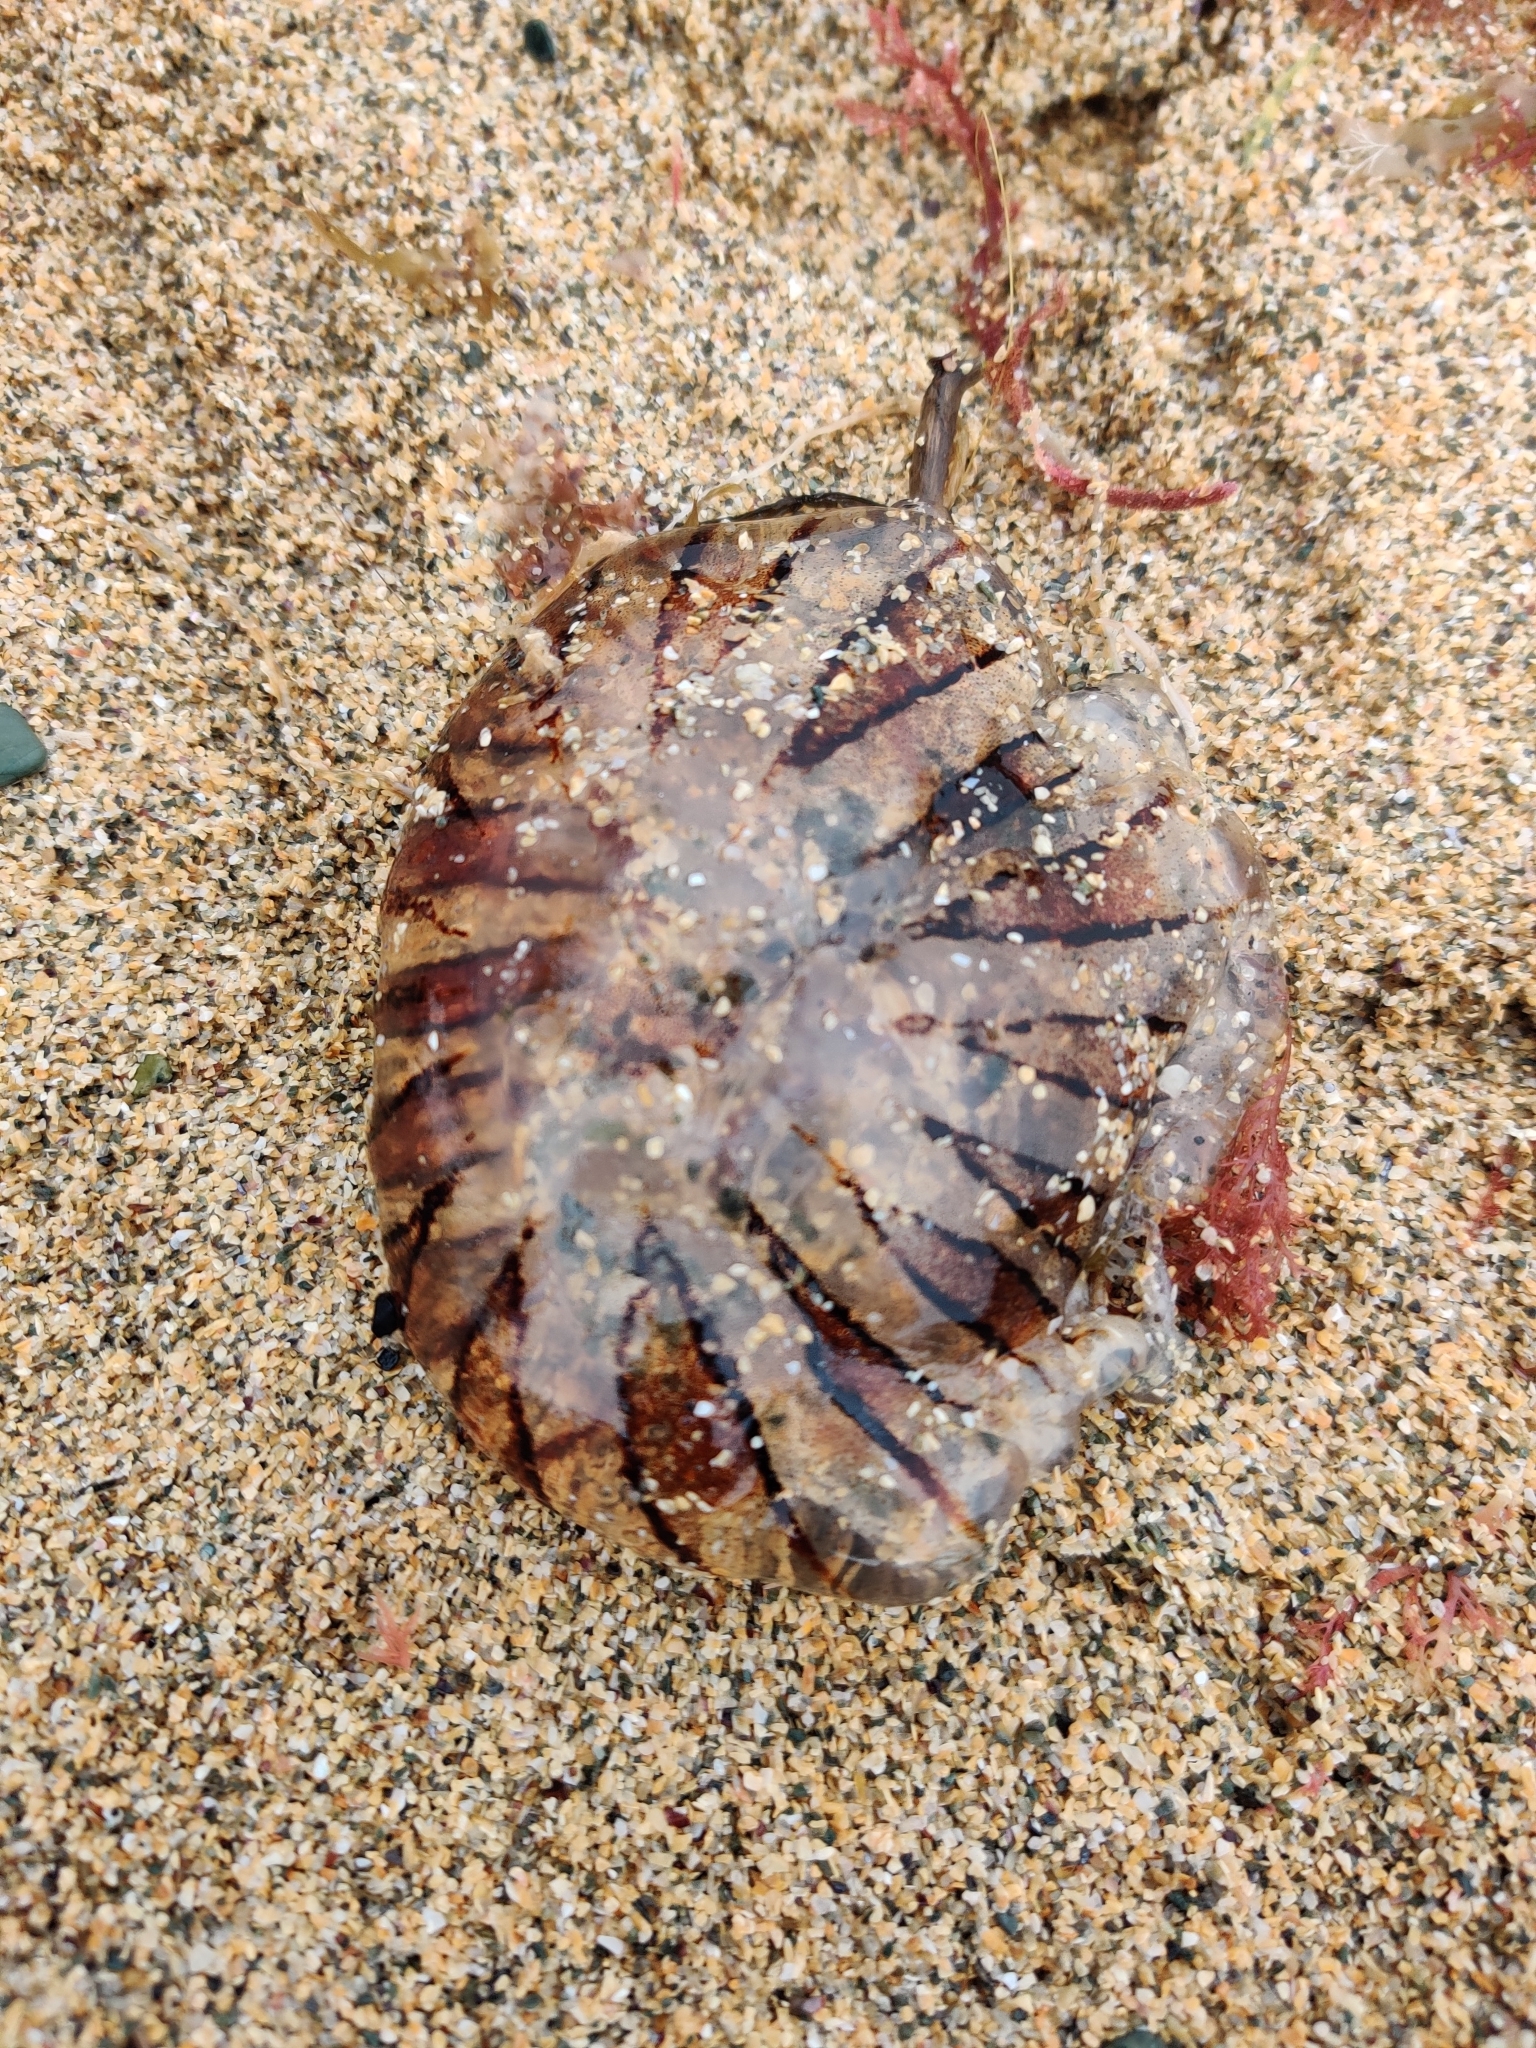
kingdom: Animalia
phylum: Cnidaria
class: Scyphozoa
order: Semaeostomeae
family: Pelagiidae
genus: Chrysaora
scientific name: Chrysaora hysoscella
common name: Compass jellyfish
